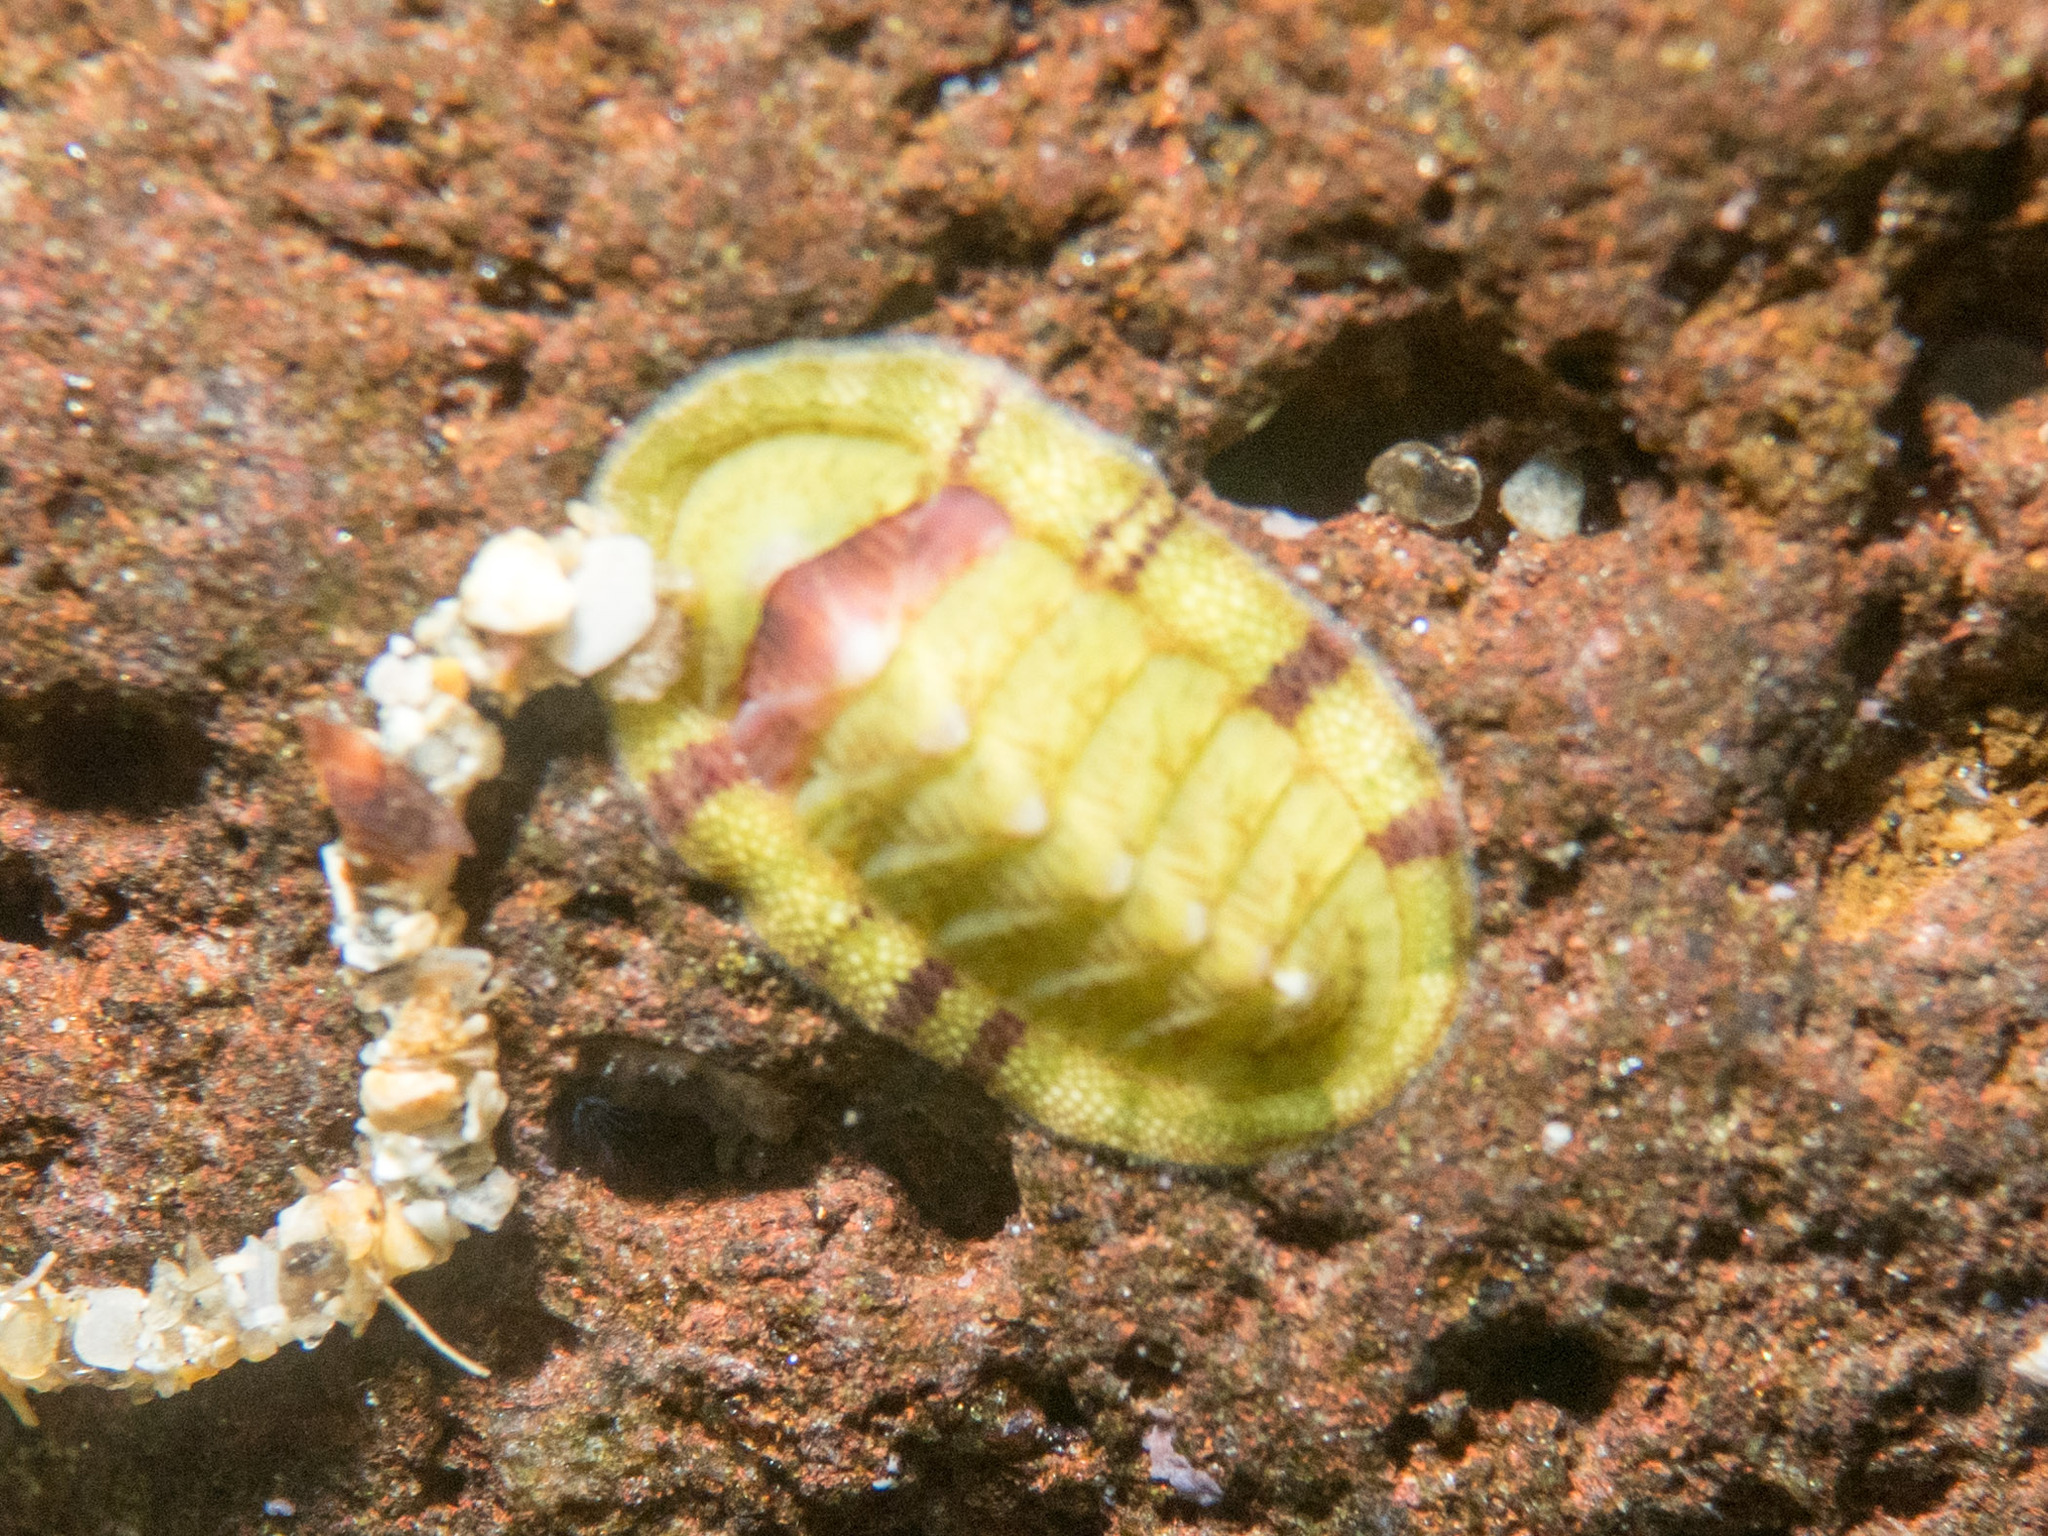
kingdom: Animalia
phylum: Mollusca
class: Polyplacophora
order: Chitonida
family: Chitonidae
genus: Rhyssoplax
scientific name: Rhyssoplax olivacea
